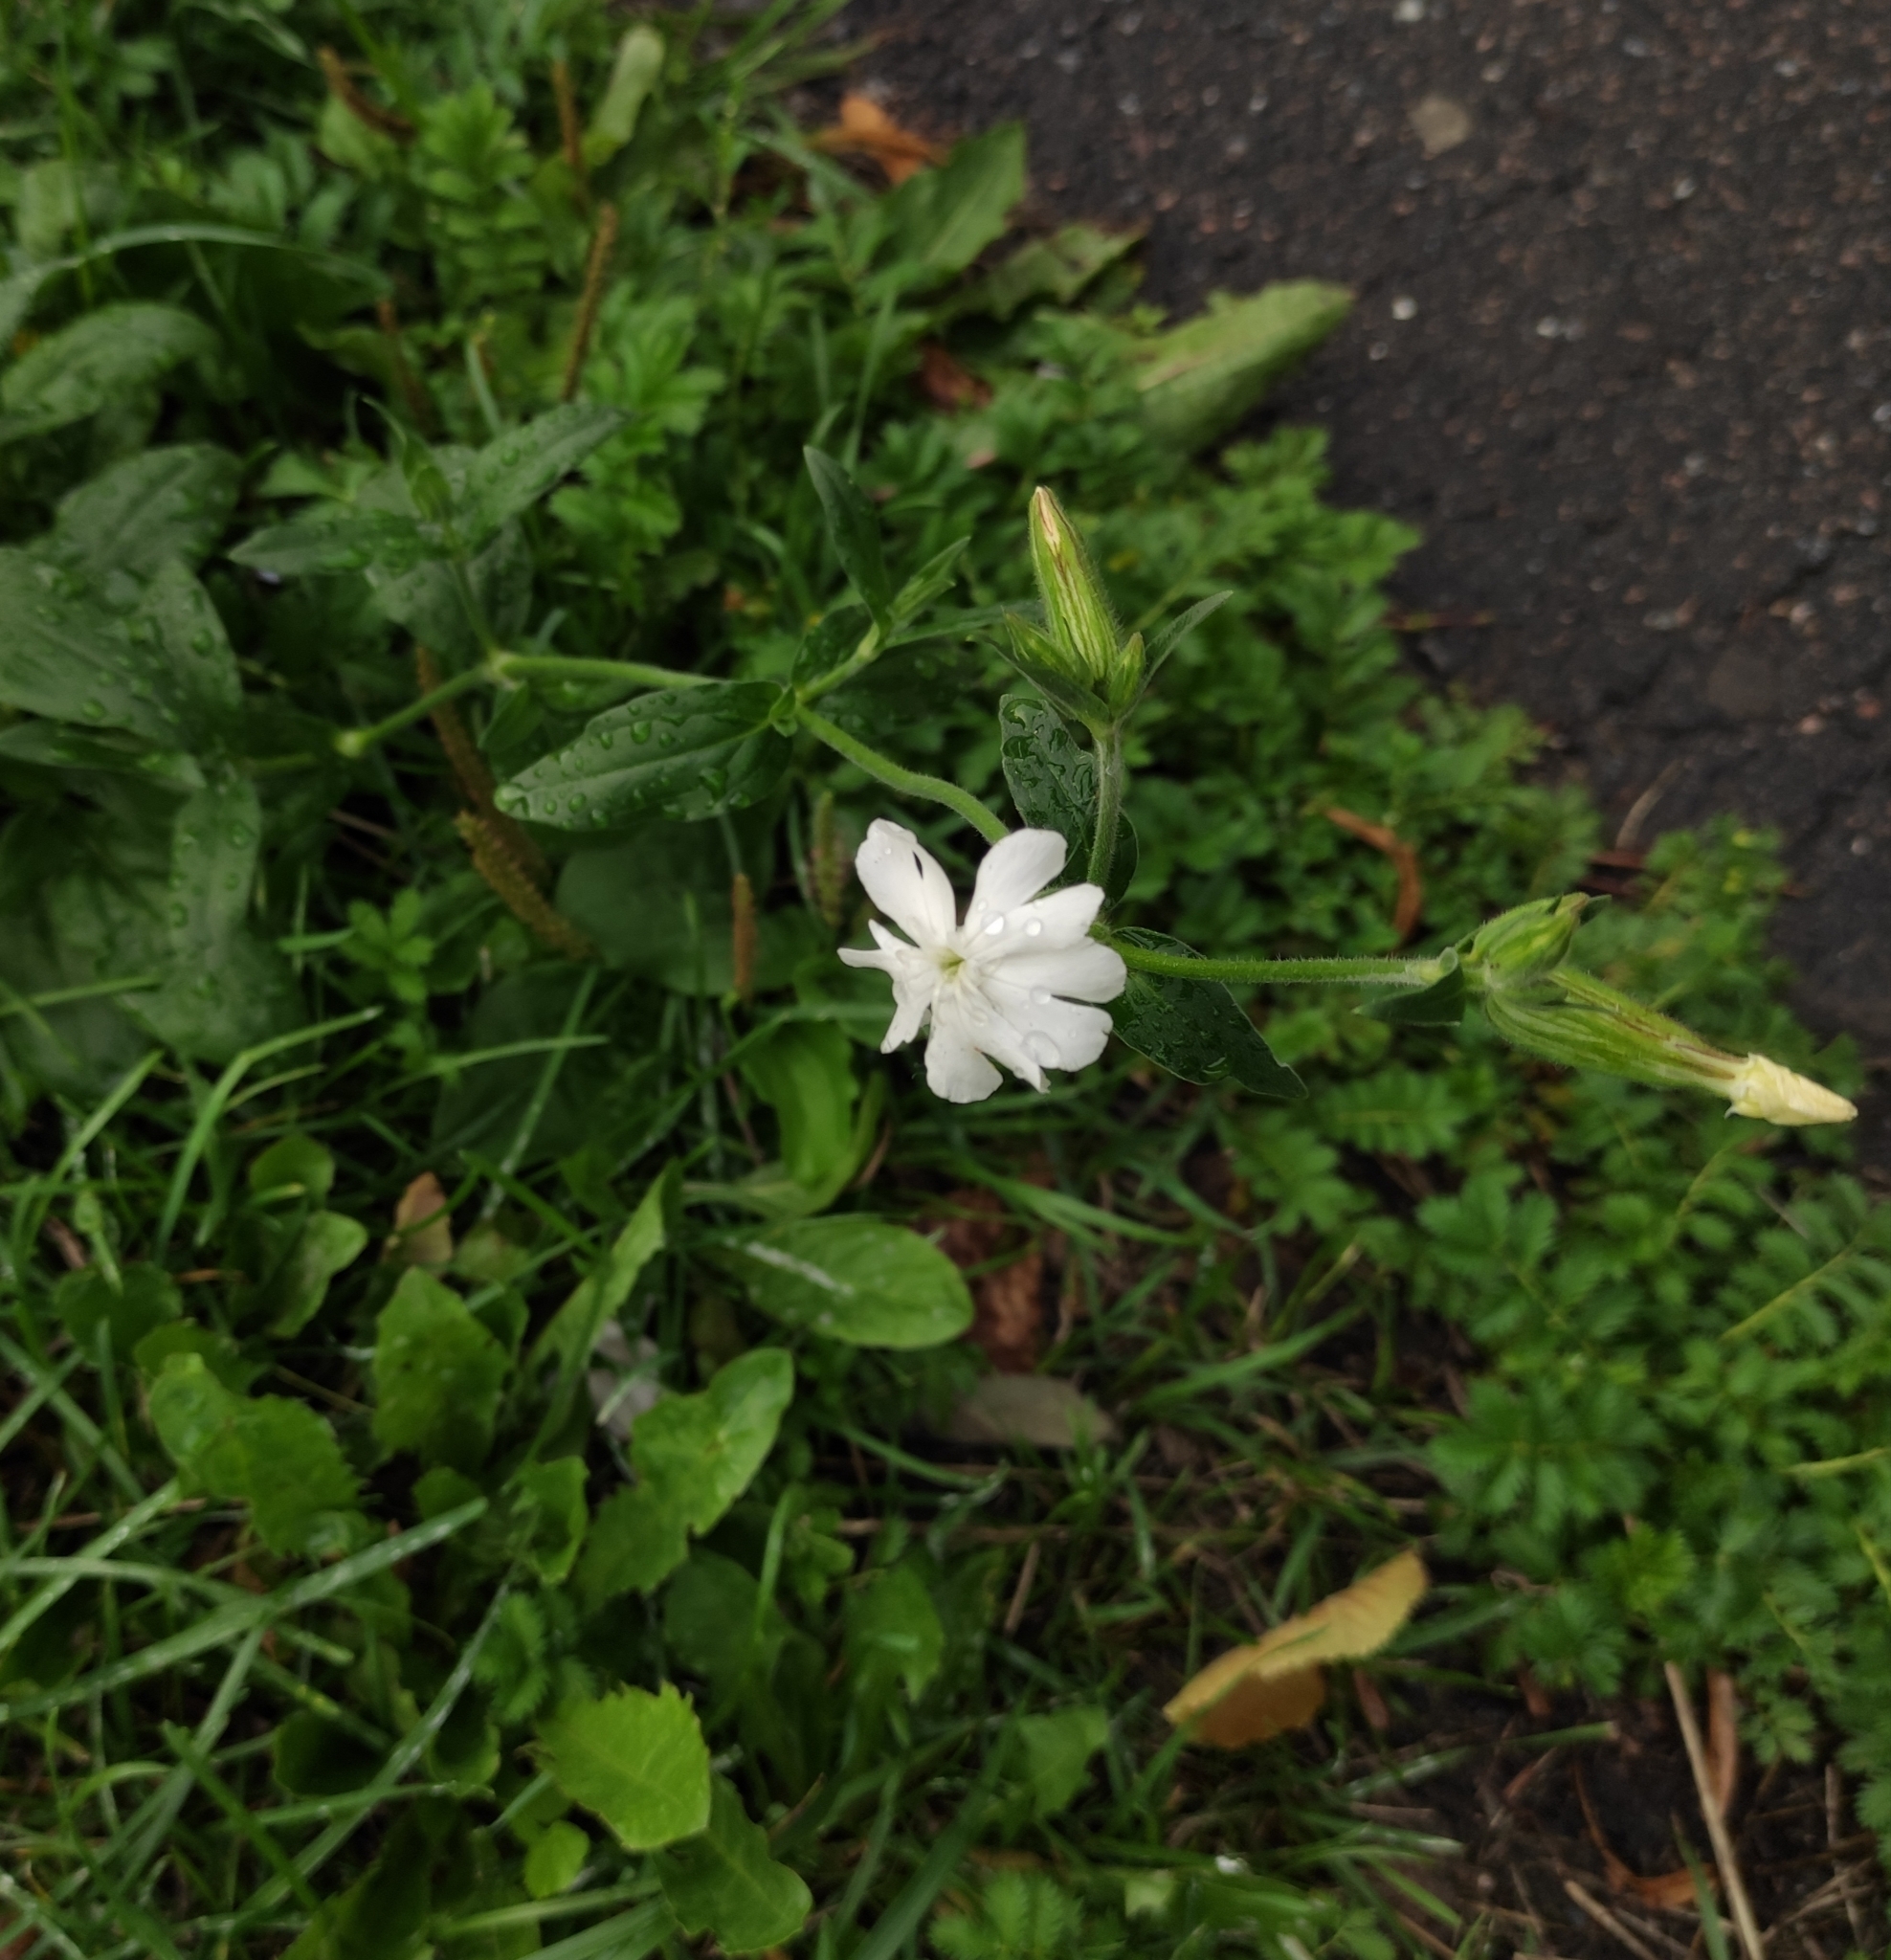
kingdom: Plantae
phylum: Tracheophyta
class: Magnoliopsida
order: Caryophyllales
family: Caryophyllaceae
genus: Silene
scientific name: Silene latifolia
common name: White campion
